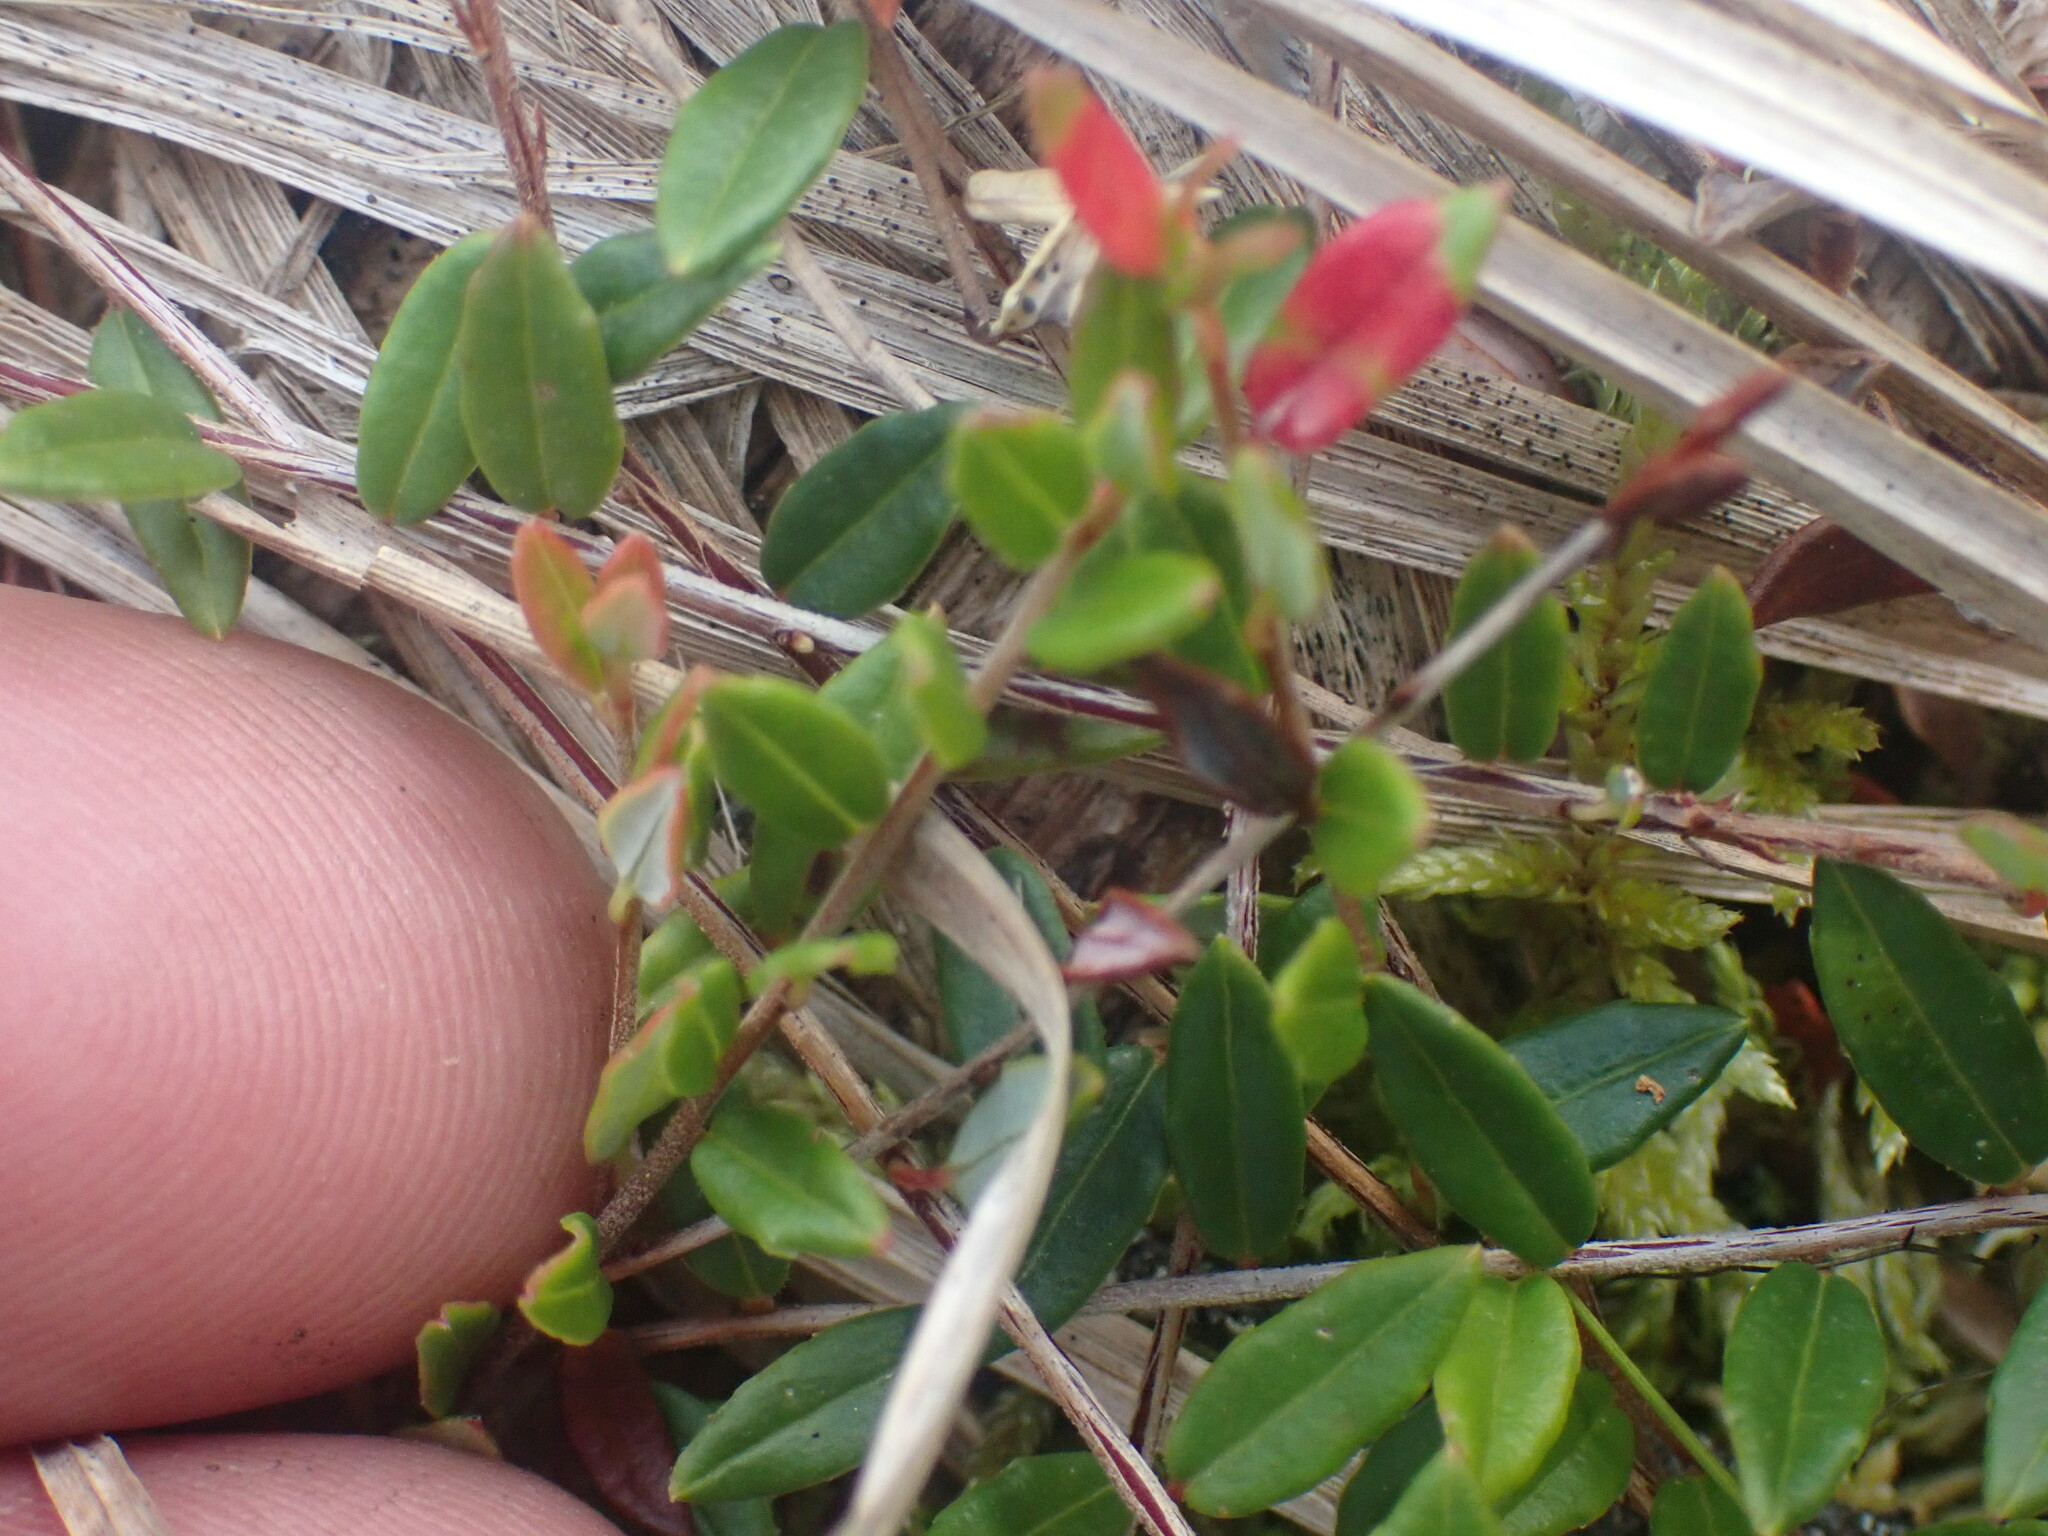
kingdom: Plantae
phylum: Tracheophyta
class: Magnoliopsida
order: Ericales
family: Ericaceae
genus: Vaccinium
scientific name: Vaccinium oxycoccos
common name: Cranberry
